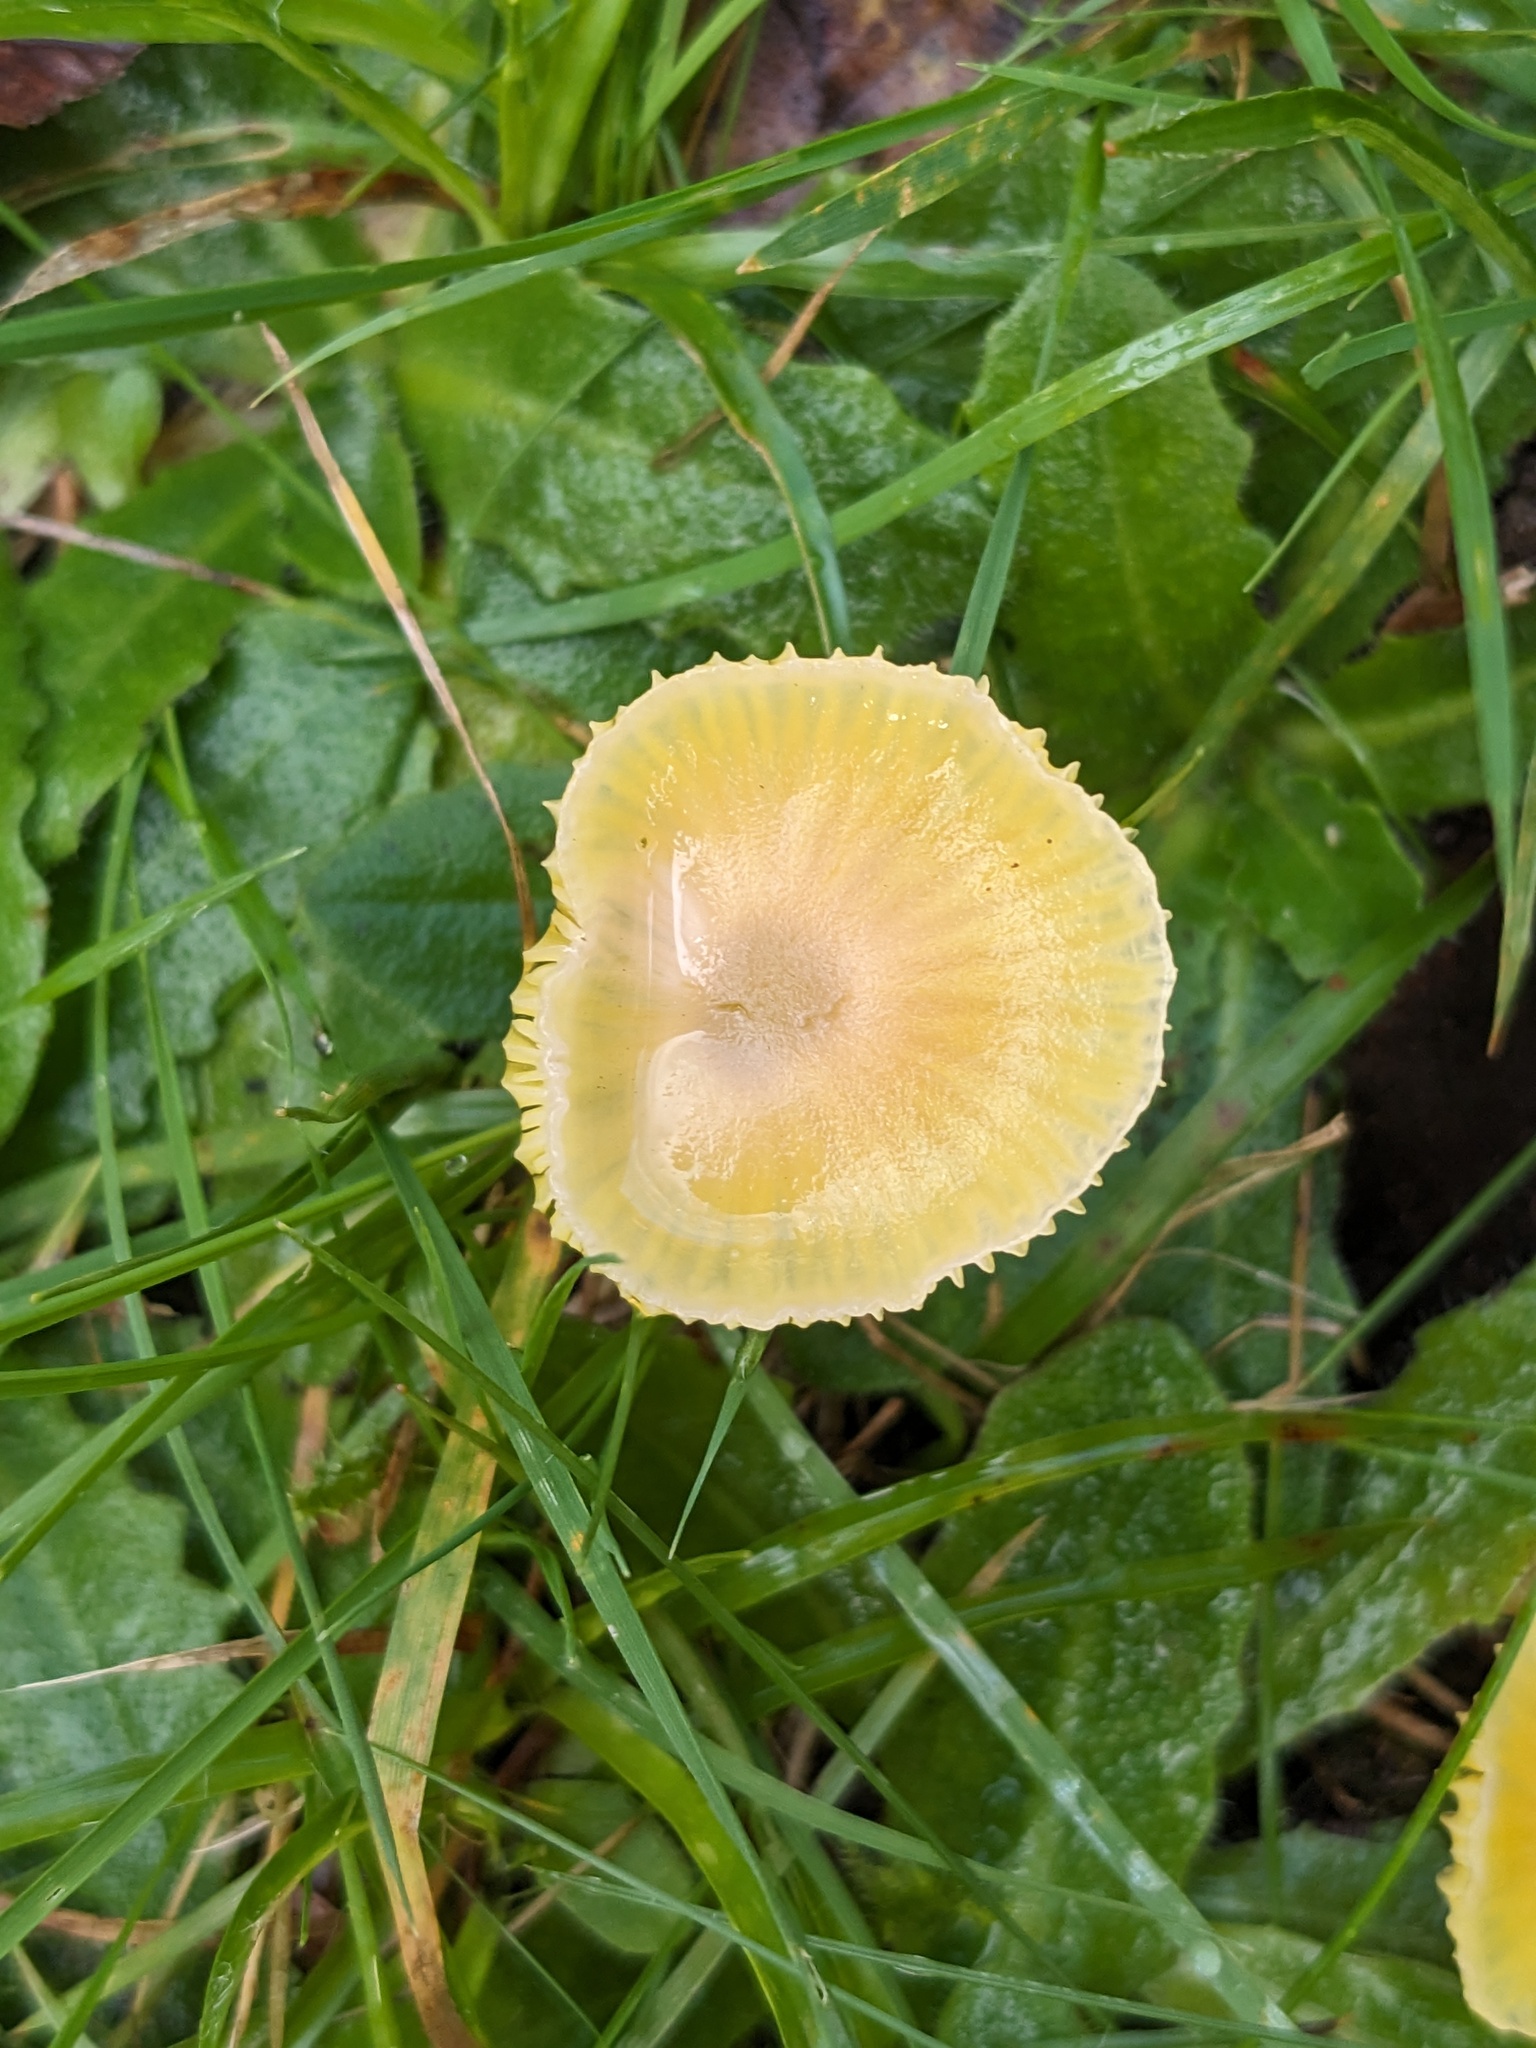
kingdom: Fungi
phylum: Basidiomycota
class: Agaricomycetes
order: Agaricales
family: Hygrophoraceae
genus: Hygrocybe
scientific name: Hygrocybe ceracea
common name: Butter waxcap
